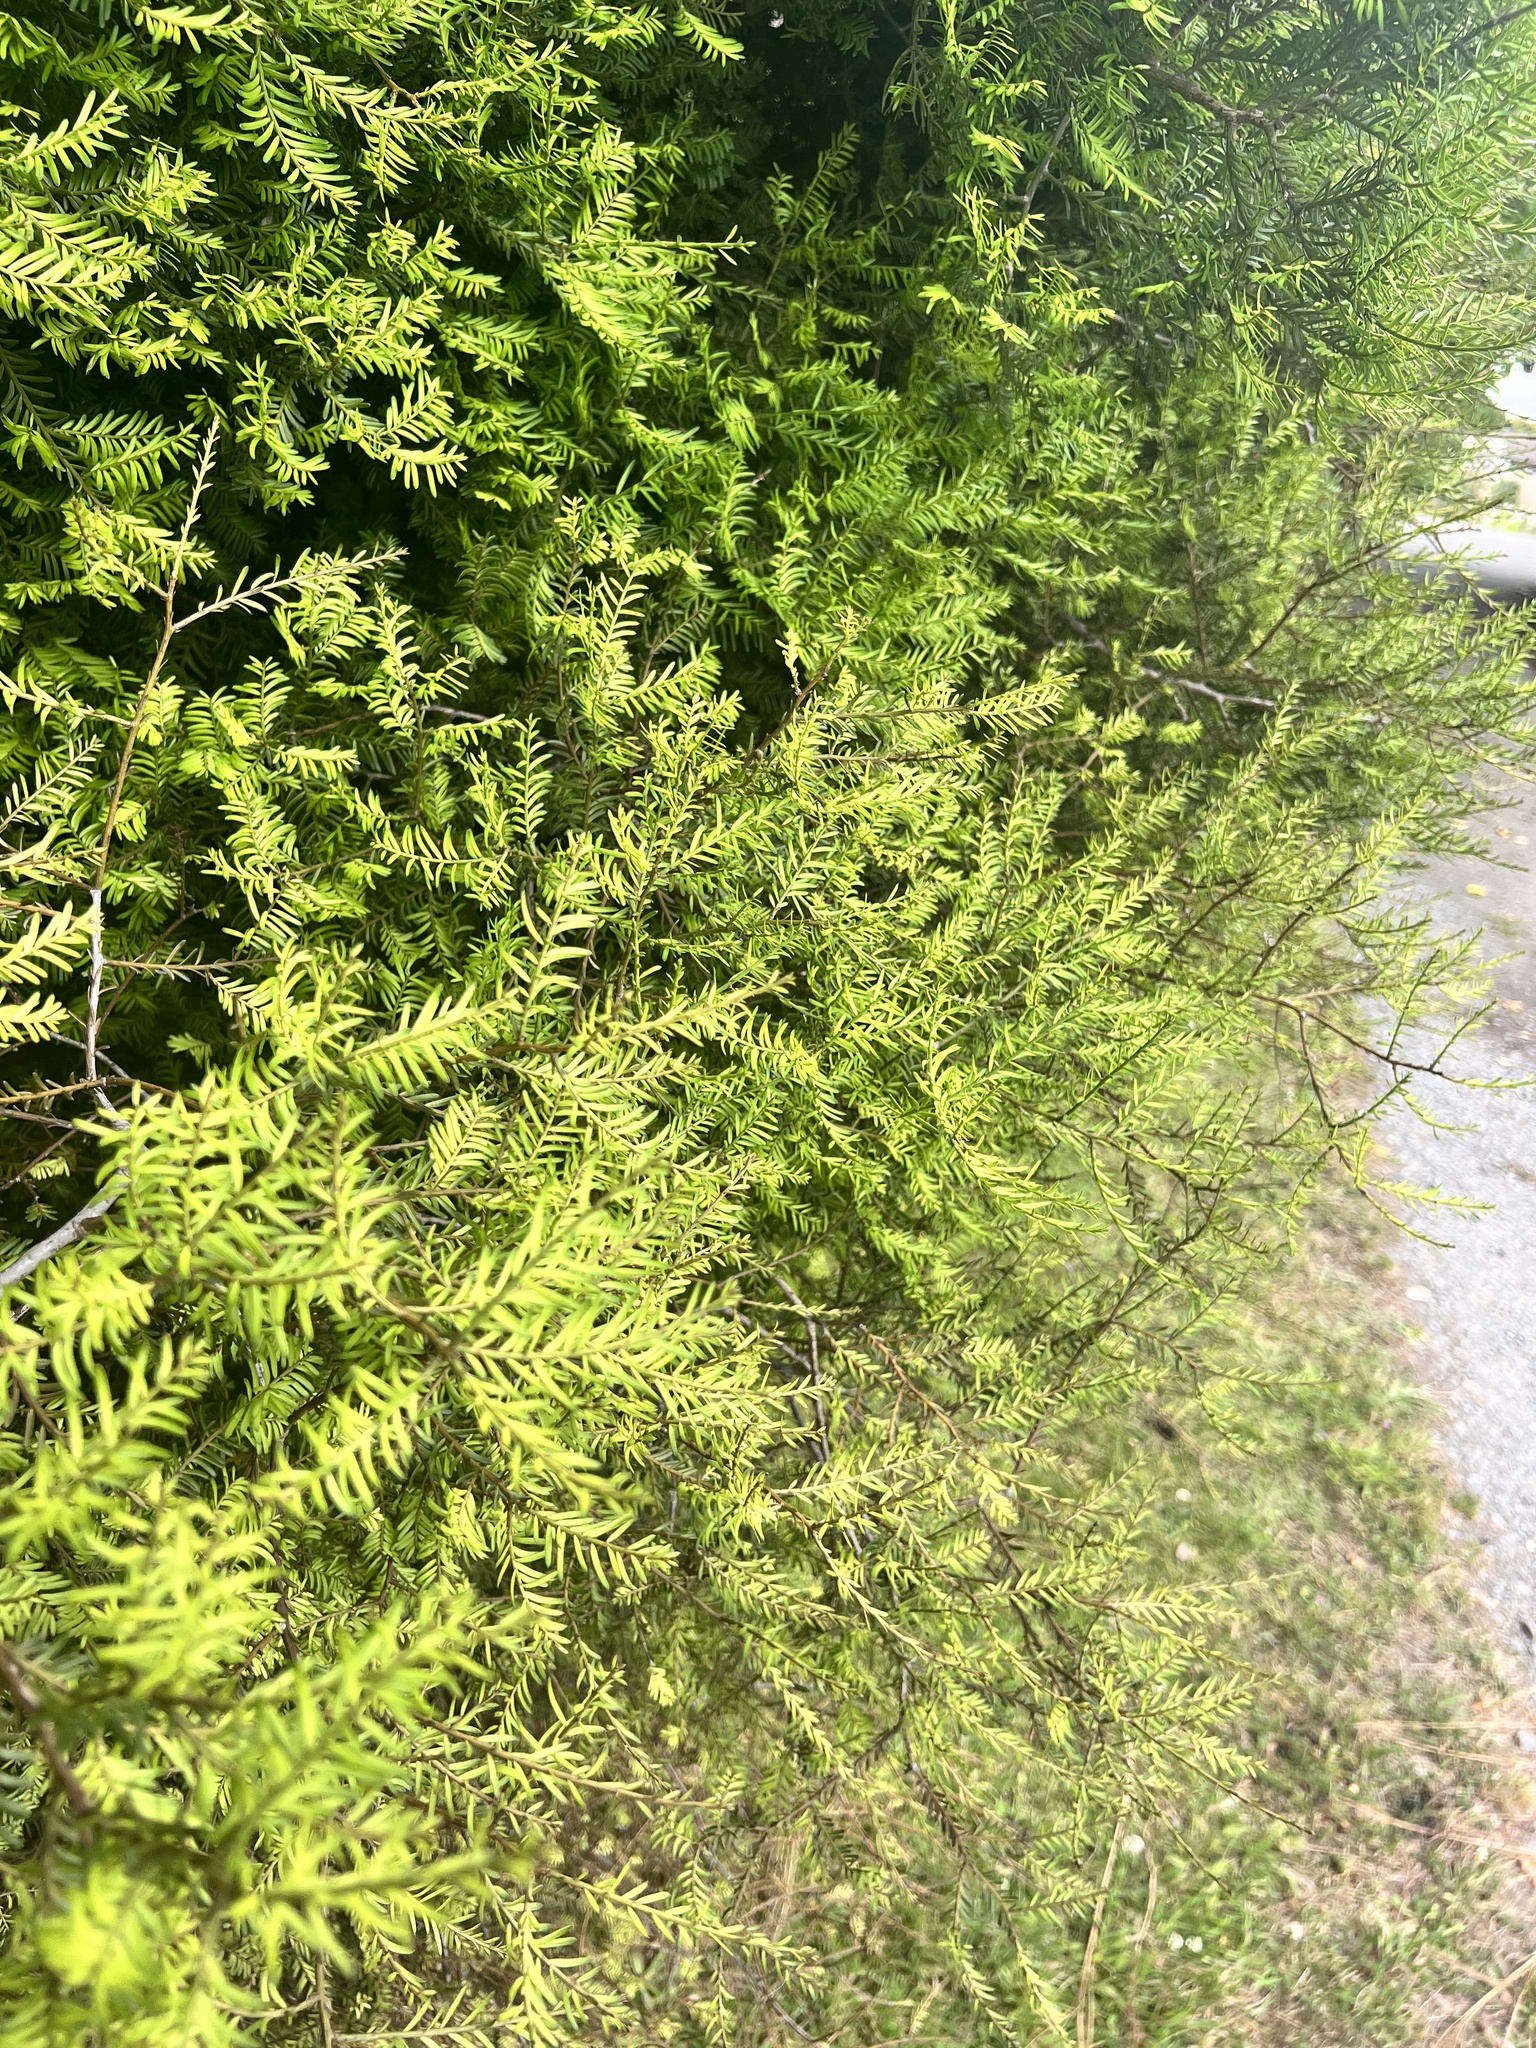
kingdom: Plantae
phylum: Tracheophyta
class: Pinopsida
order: Pinales
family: Podocarpaceae
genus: Prumnopitys
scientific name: Prumnopitys taxifolia
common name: Matai
